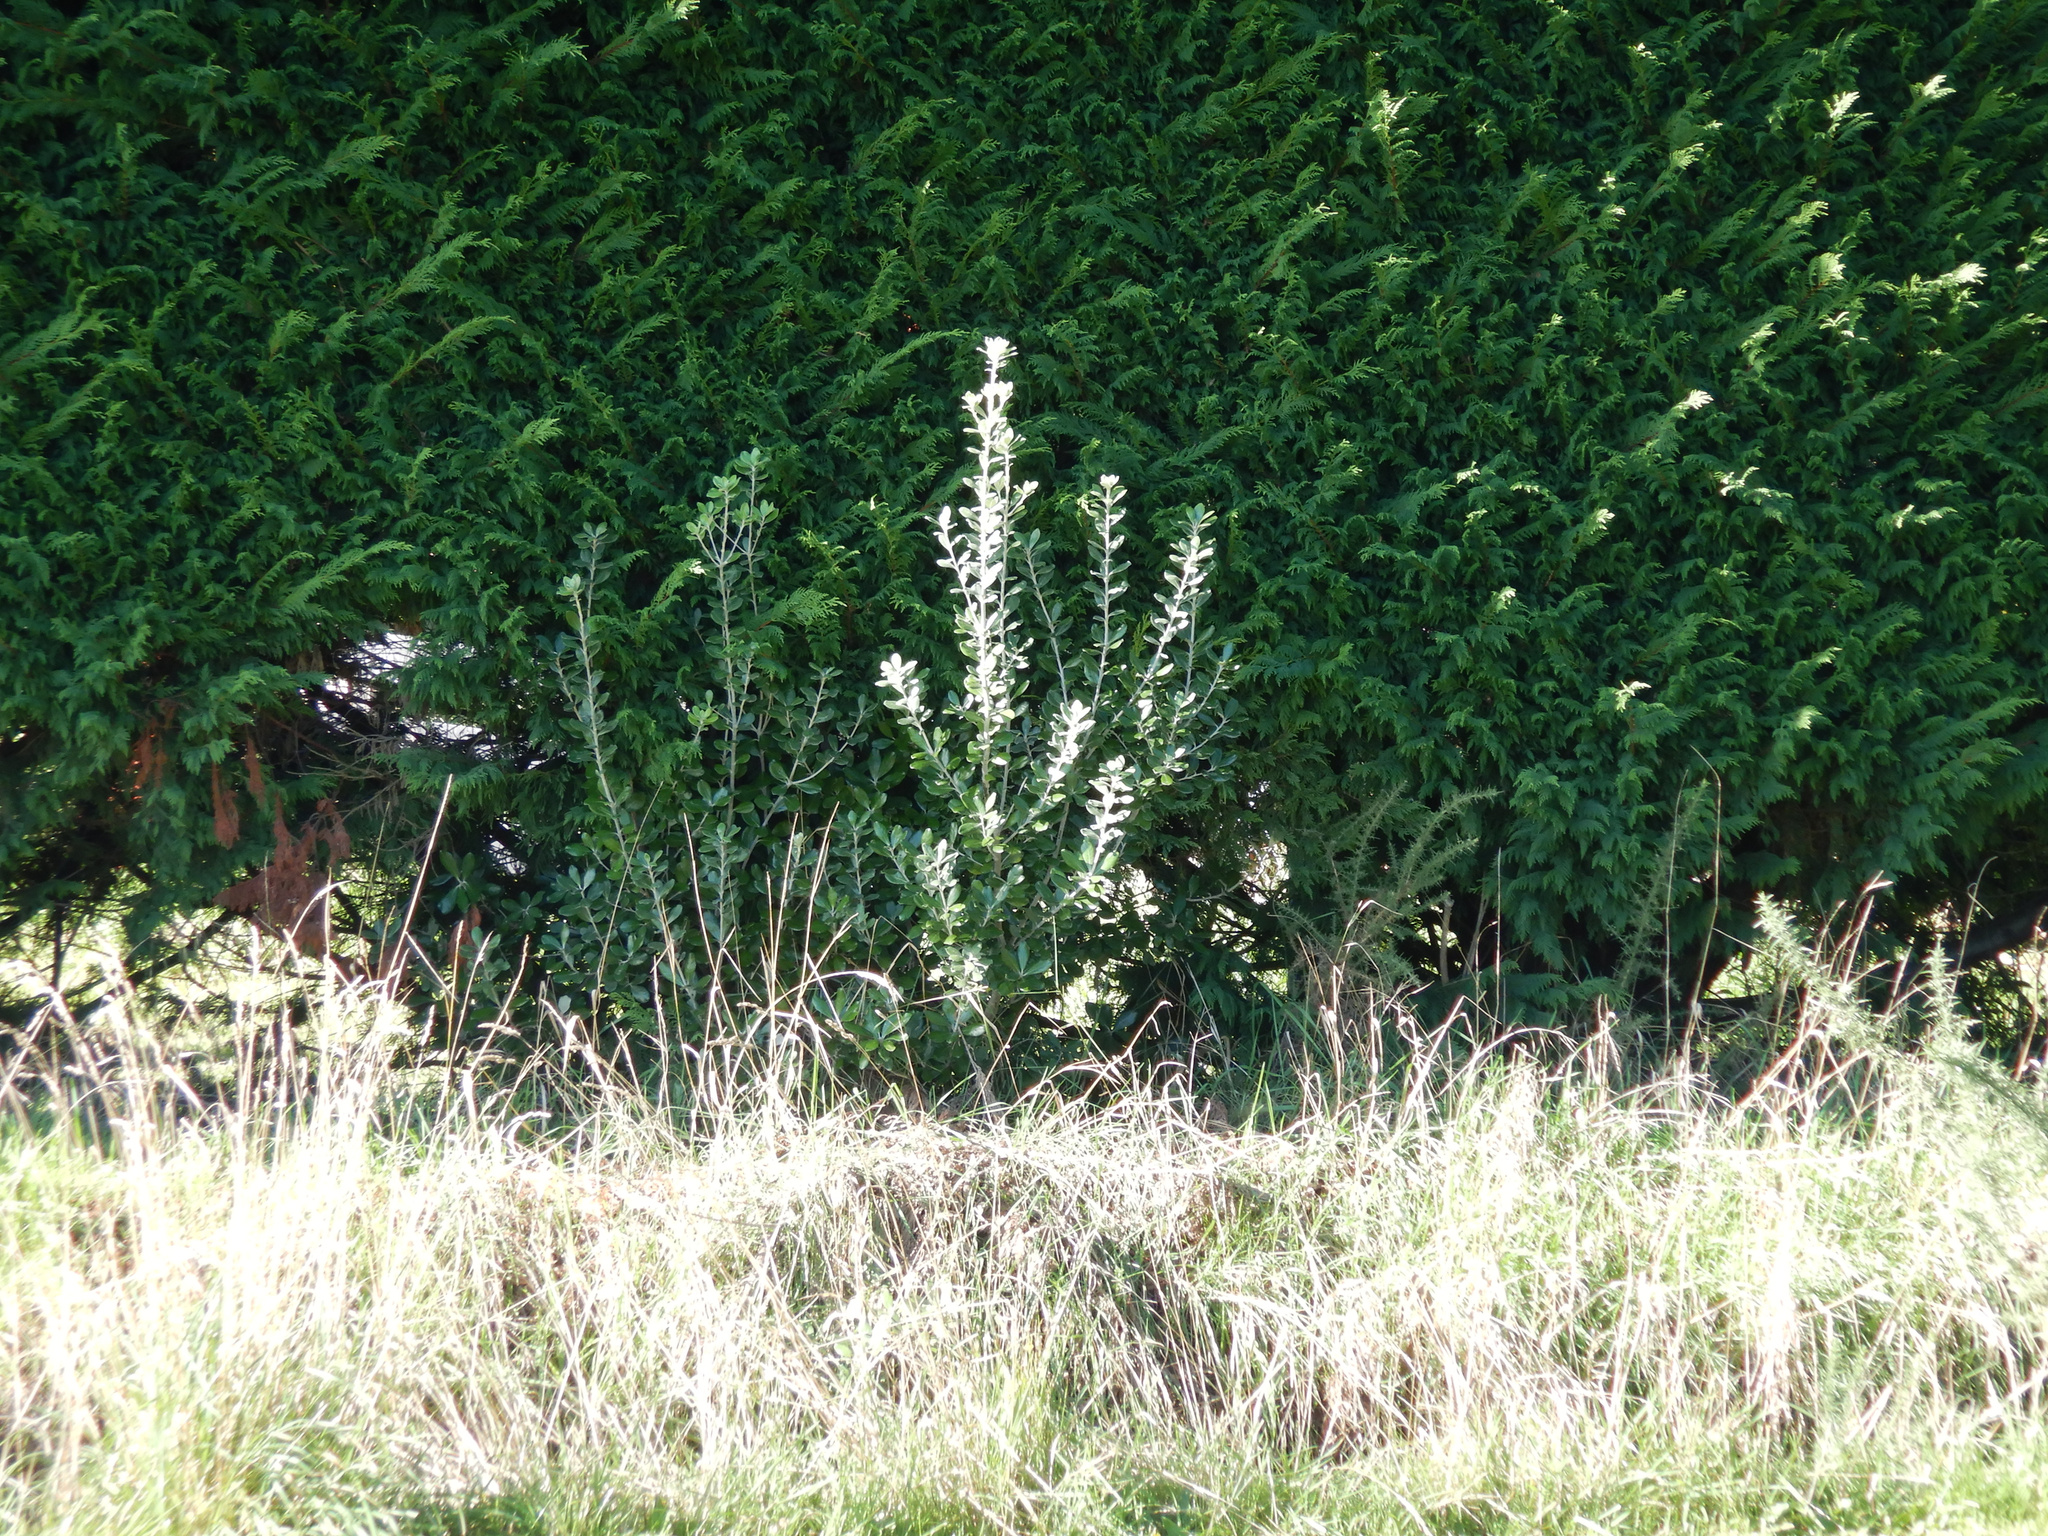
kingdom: Plantae
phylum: Tracheophyta
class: Magnoliopsida
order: Apiales
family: Pittosporaceae
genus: Pittosporum
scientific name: Pittosporum crassifolium
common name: Karo
